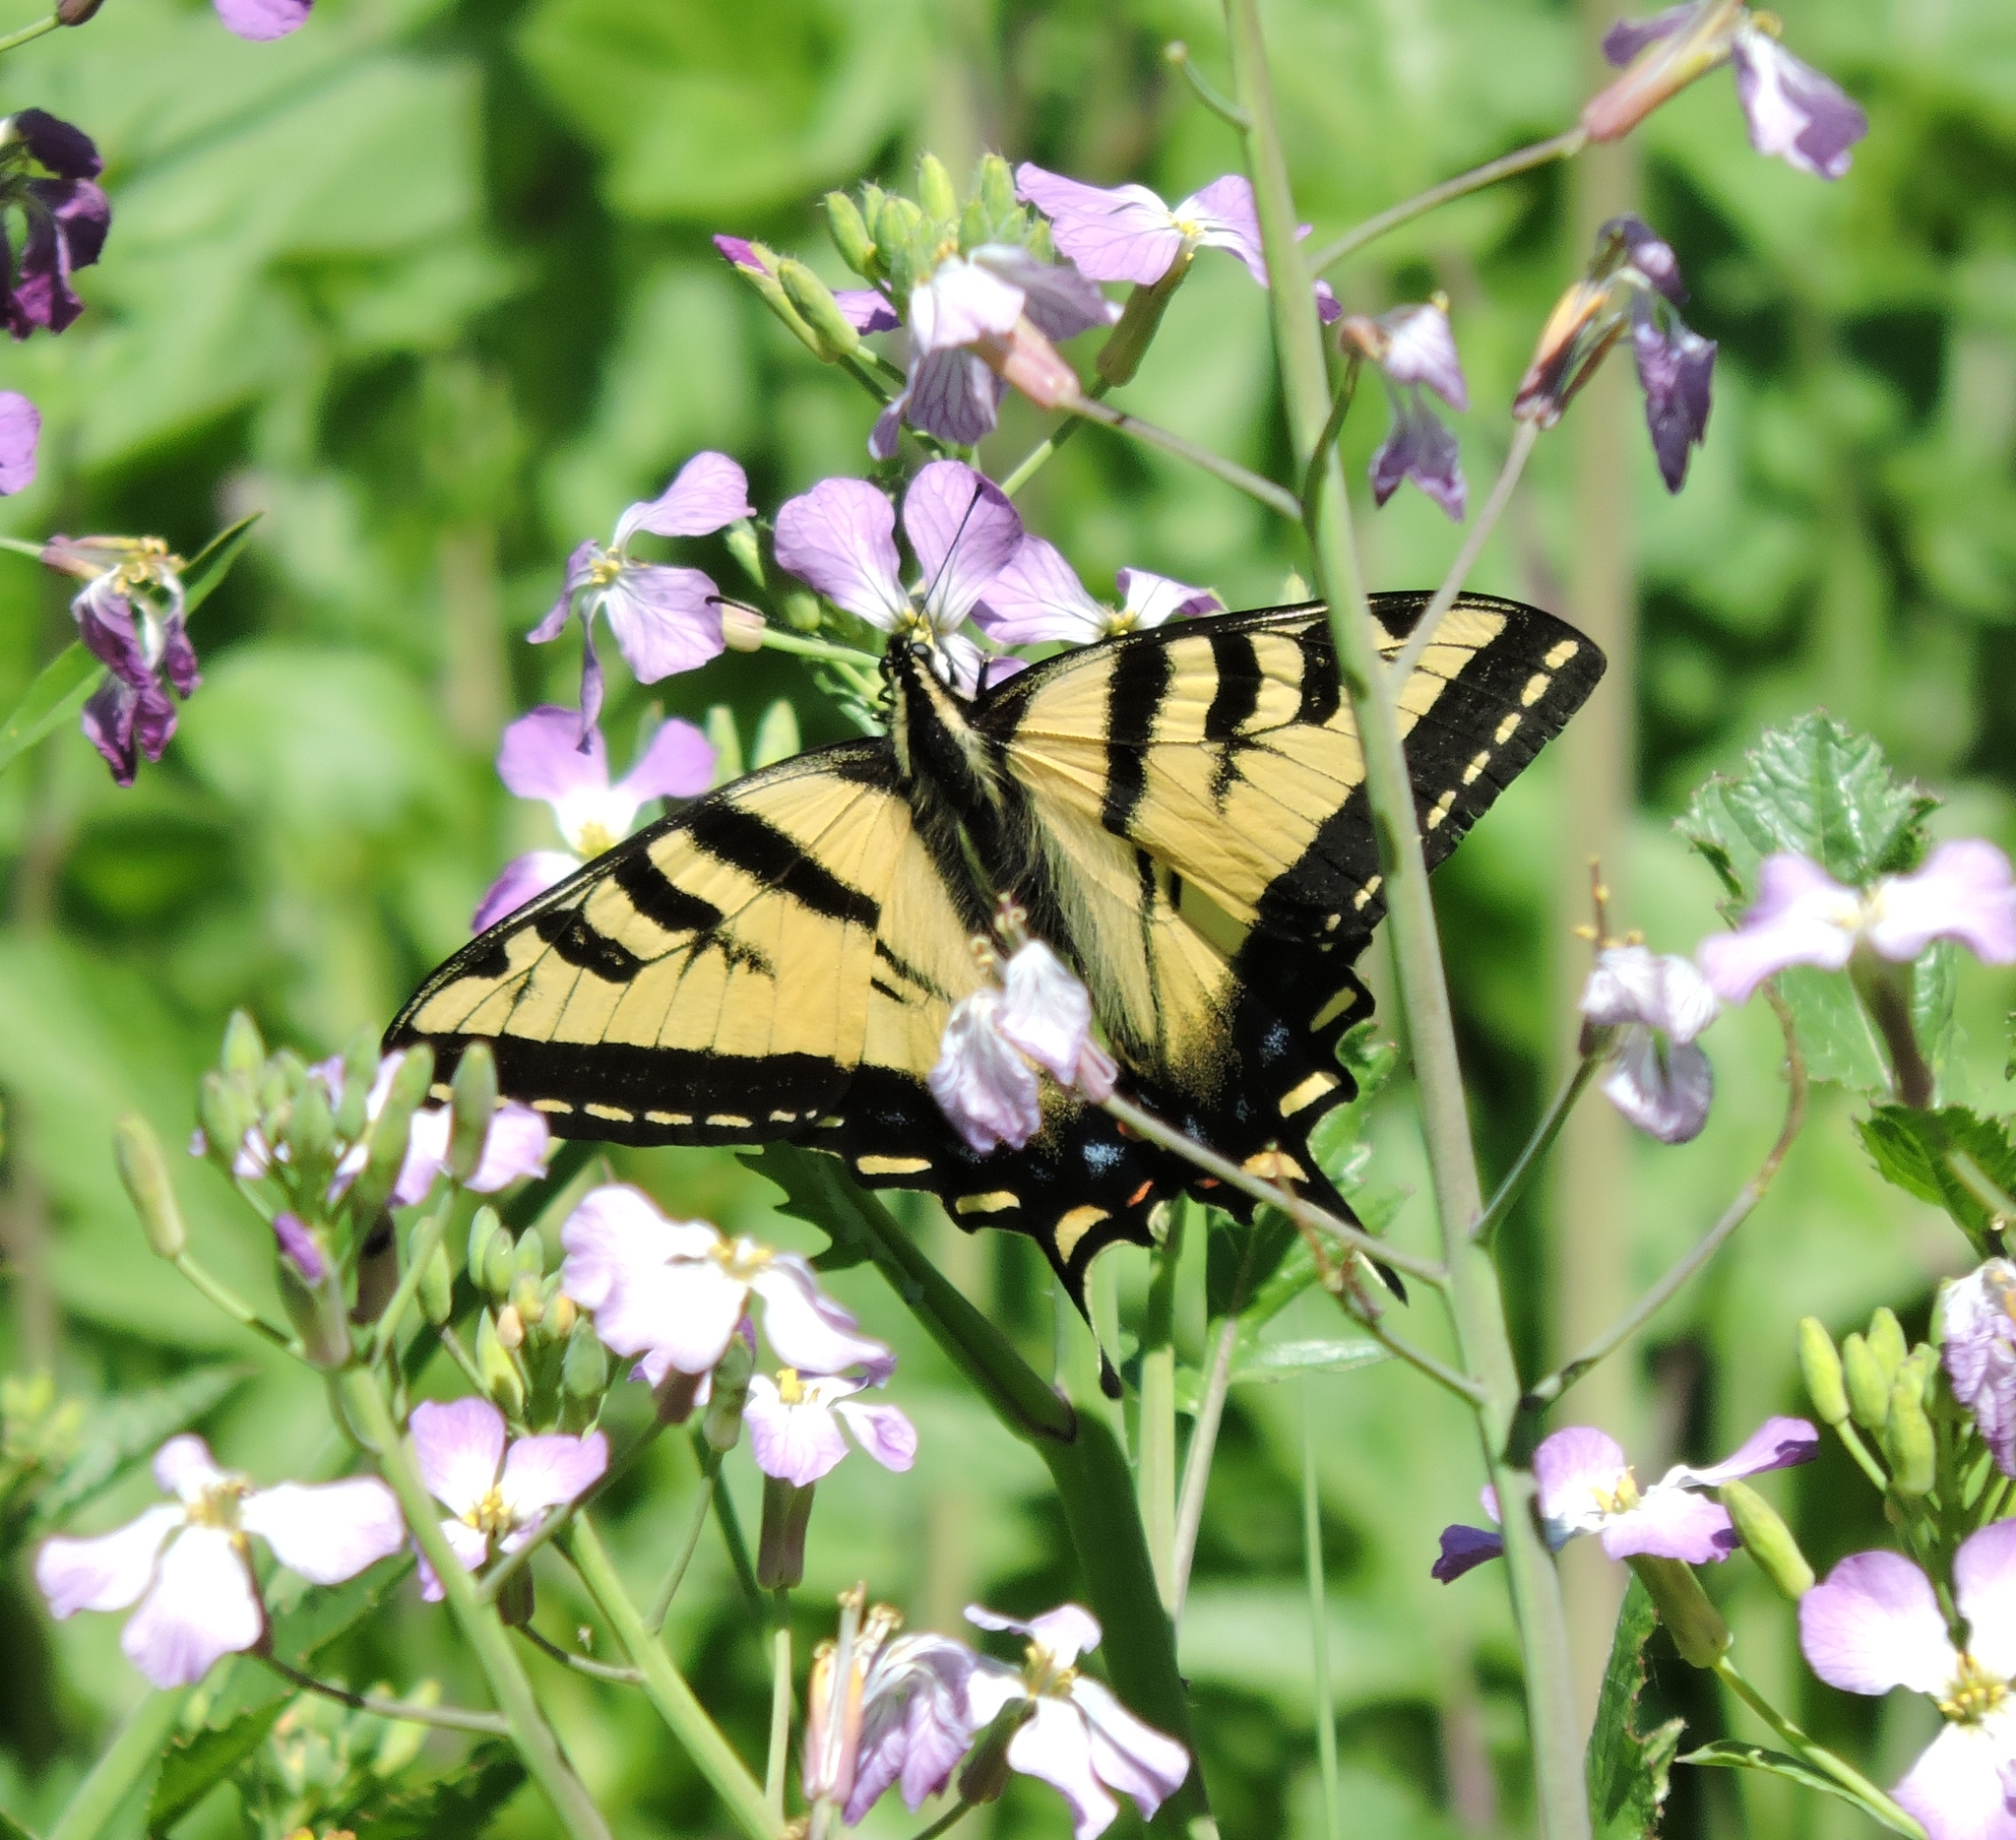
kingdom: Animalia
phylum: Arthropoda
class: Insecta
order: Lepidoptera
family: Papilionidae
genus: Papilio
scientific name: Papilio rutulus
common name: Western tiger swallowtail
